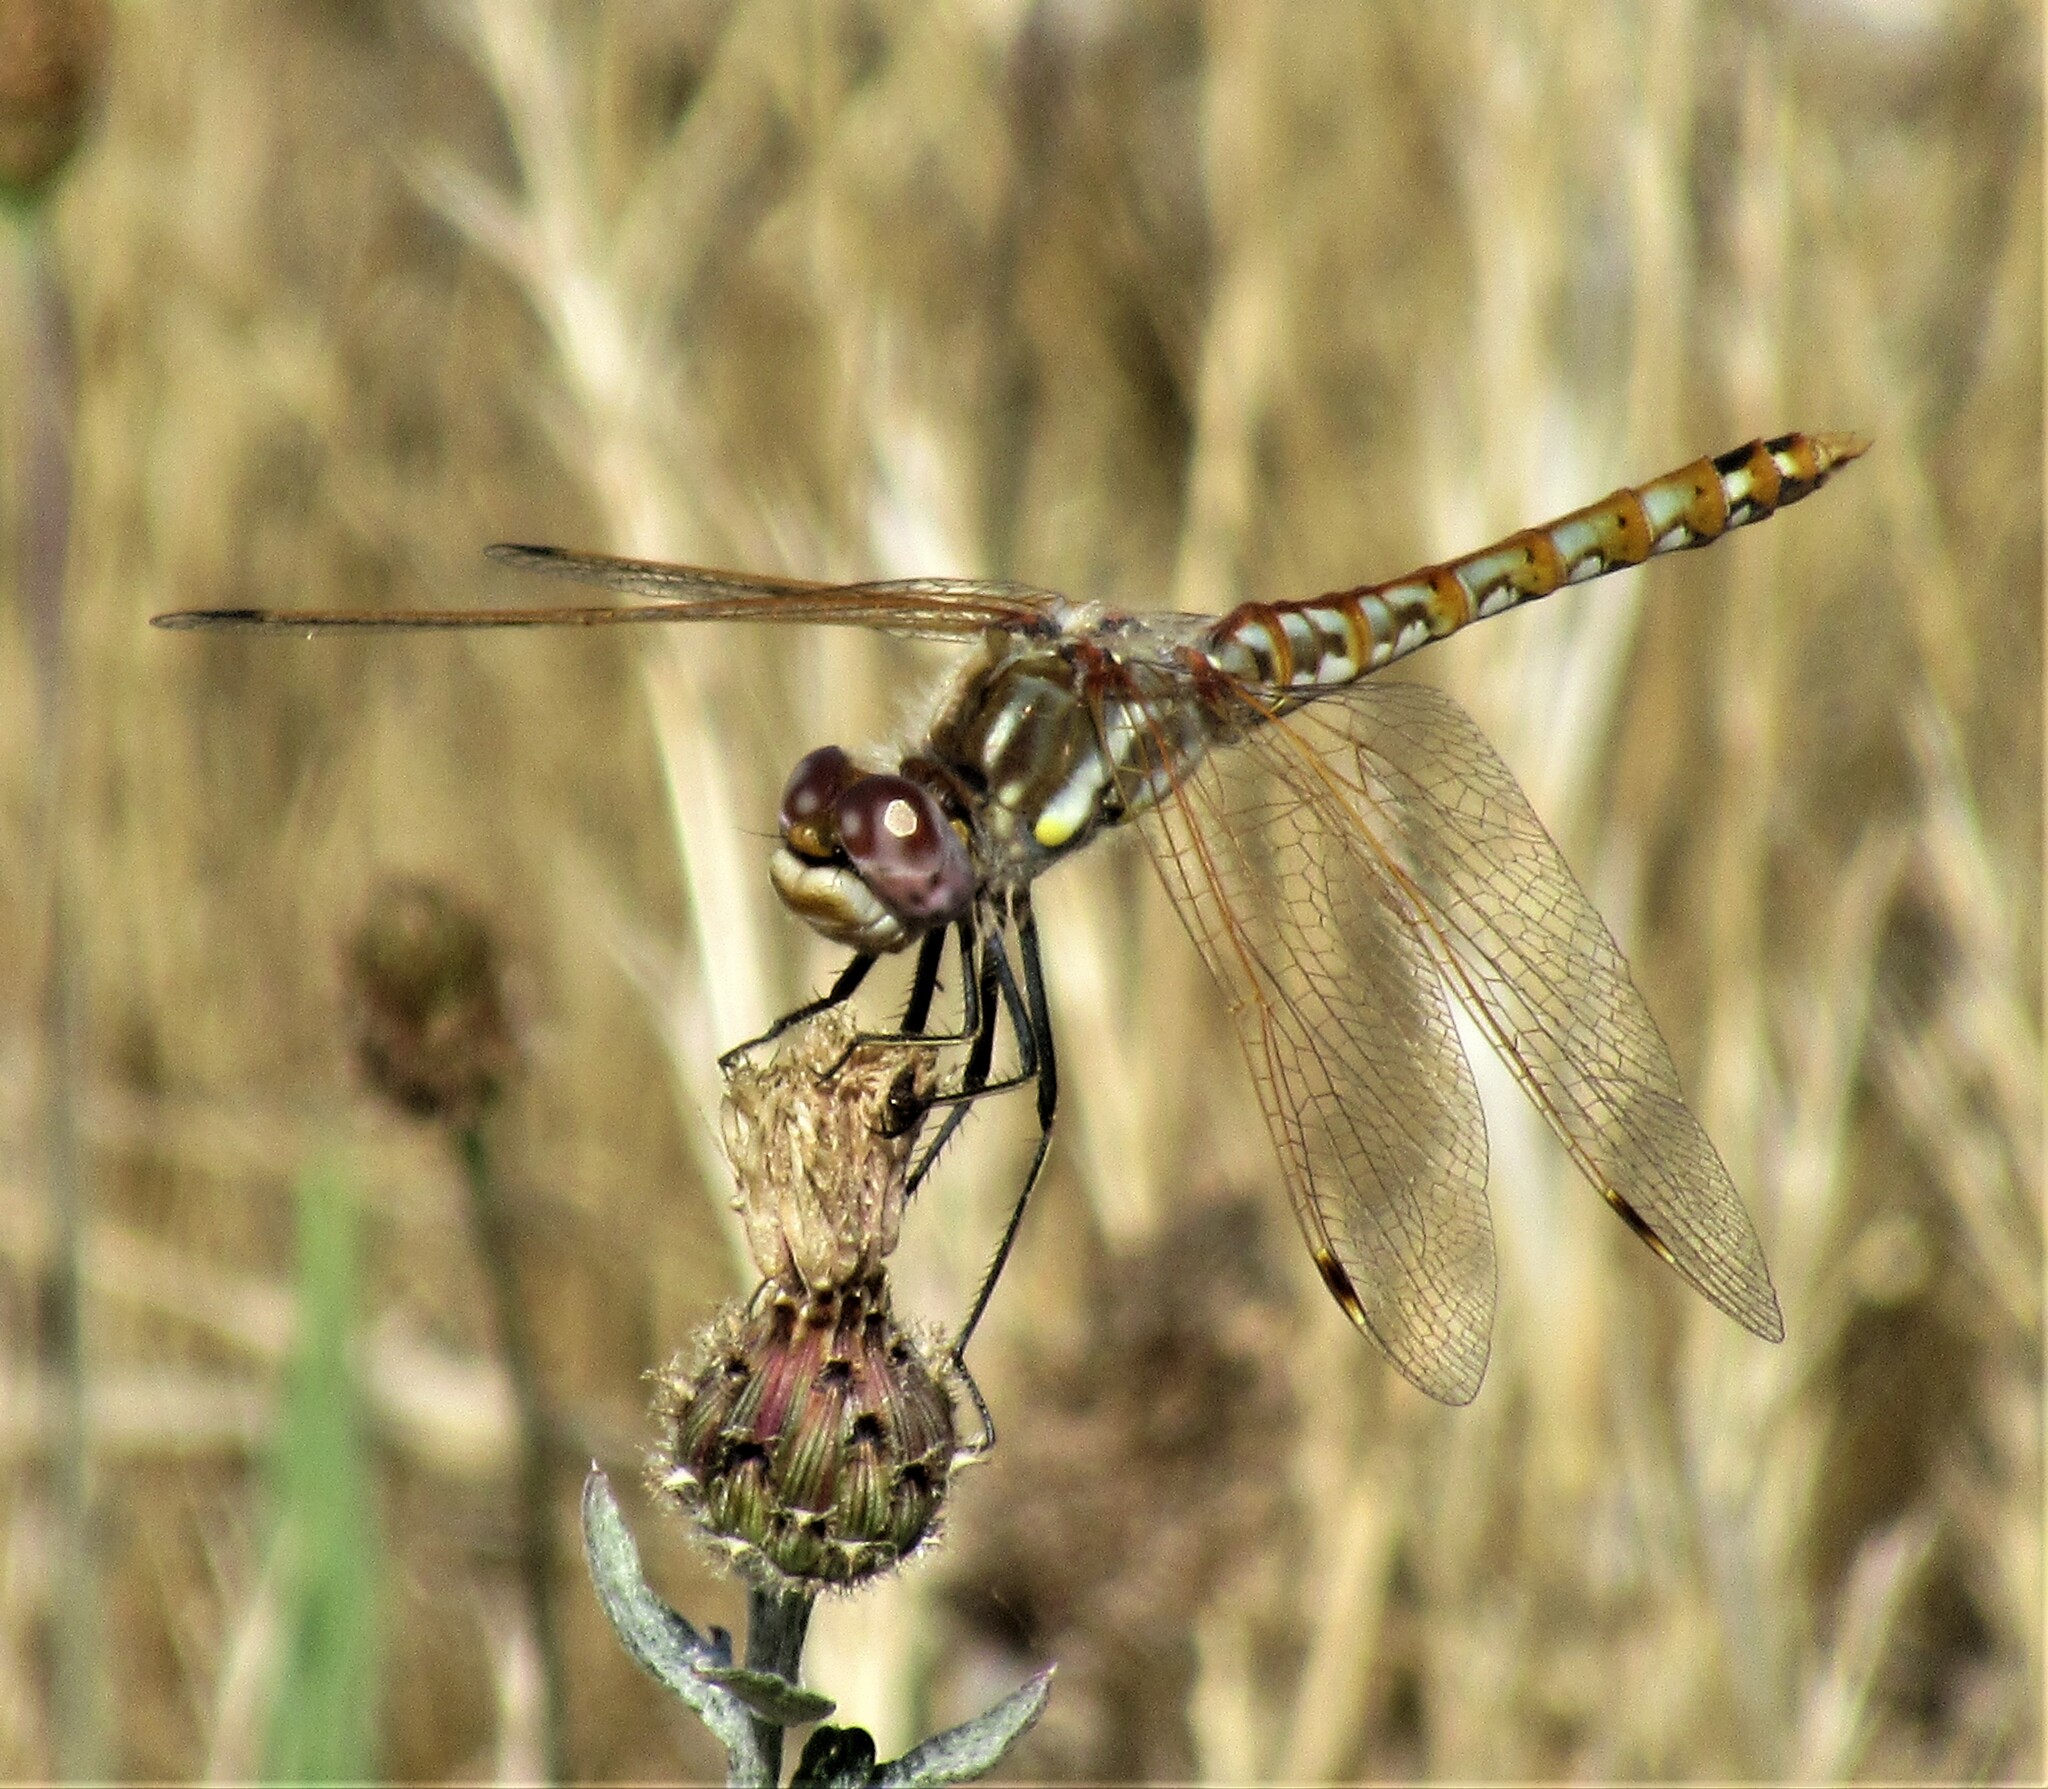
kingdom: Animalia
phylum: Arthropoda
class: Insecta
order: Odonata
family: Libellulidae
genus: Sympetrum
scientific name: Sympetrum corruptum
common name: Variegated meadowhawk
